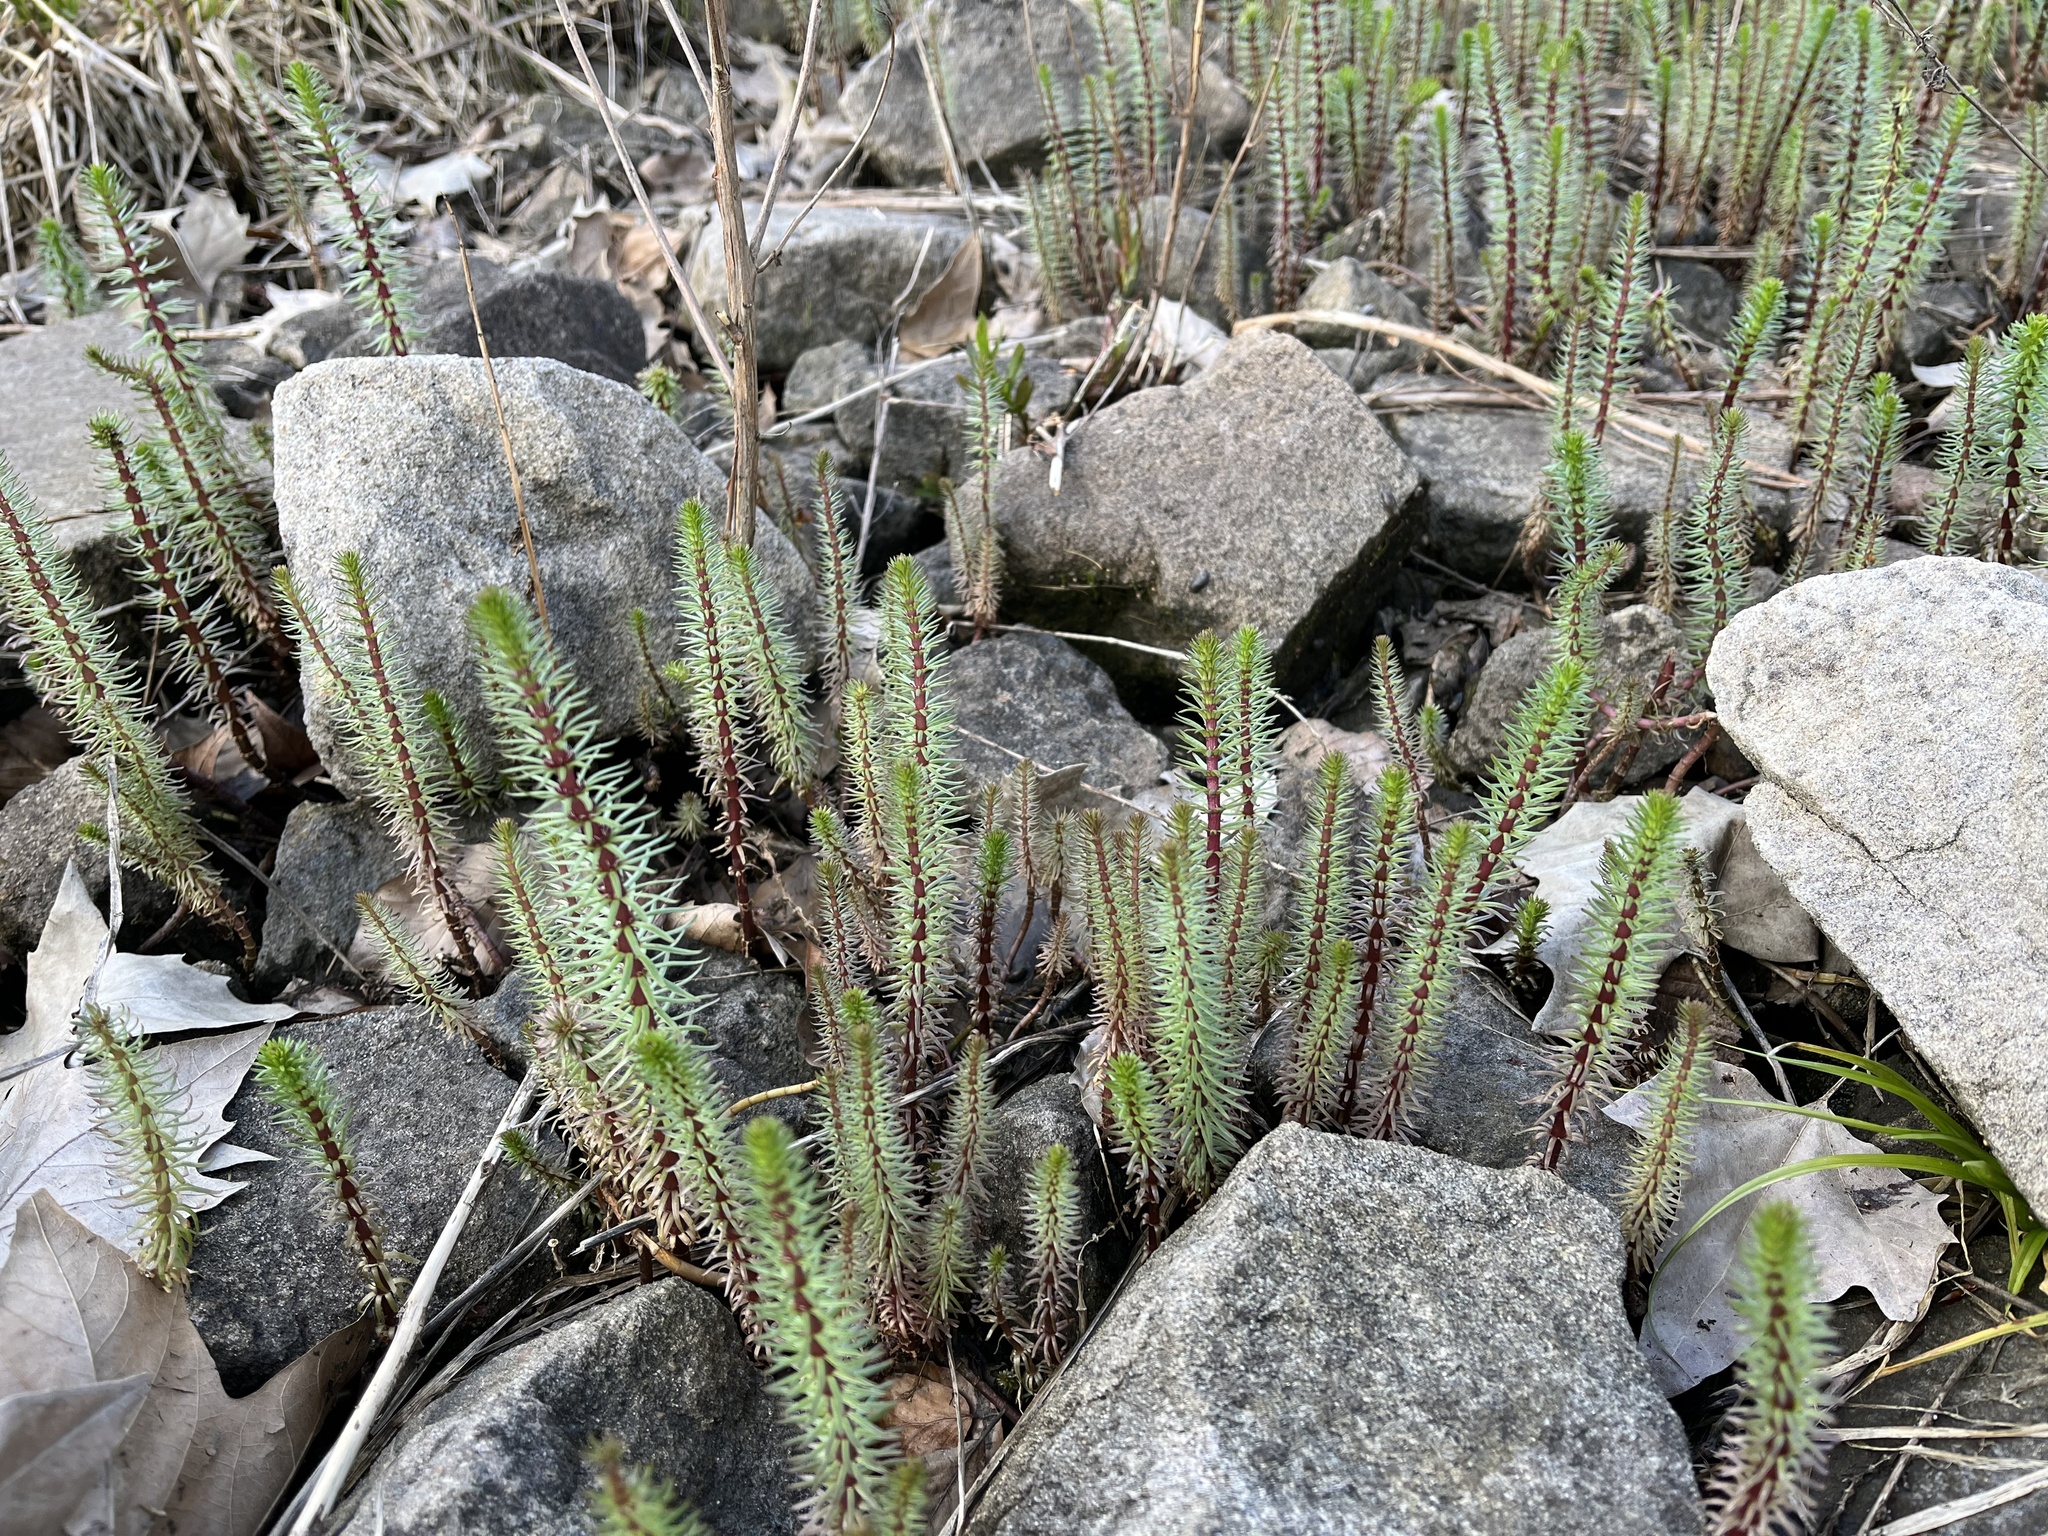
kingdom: Plantae
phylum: Tracheophyta
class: Magnoliopsida
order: Lamiales
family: Plantaginaceae
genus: Hippuris
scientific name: Hippuris vulgaris
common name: Mare's-tail
